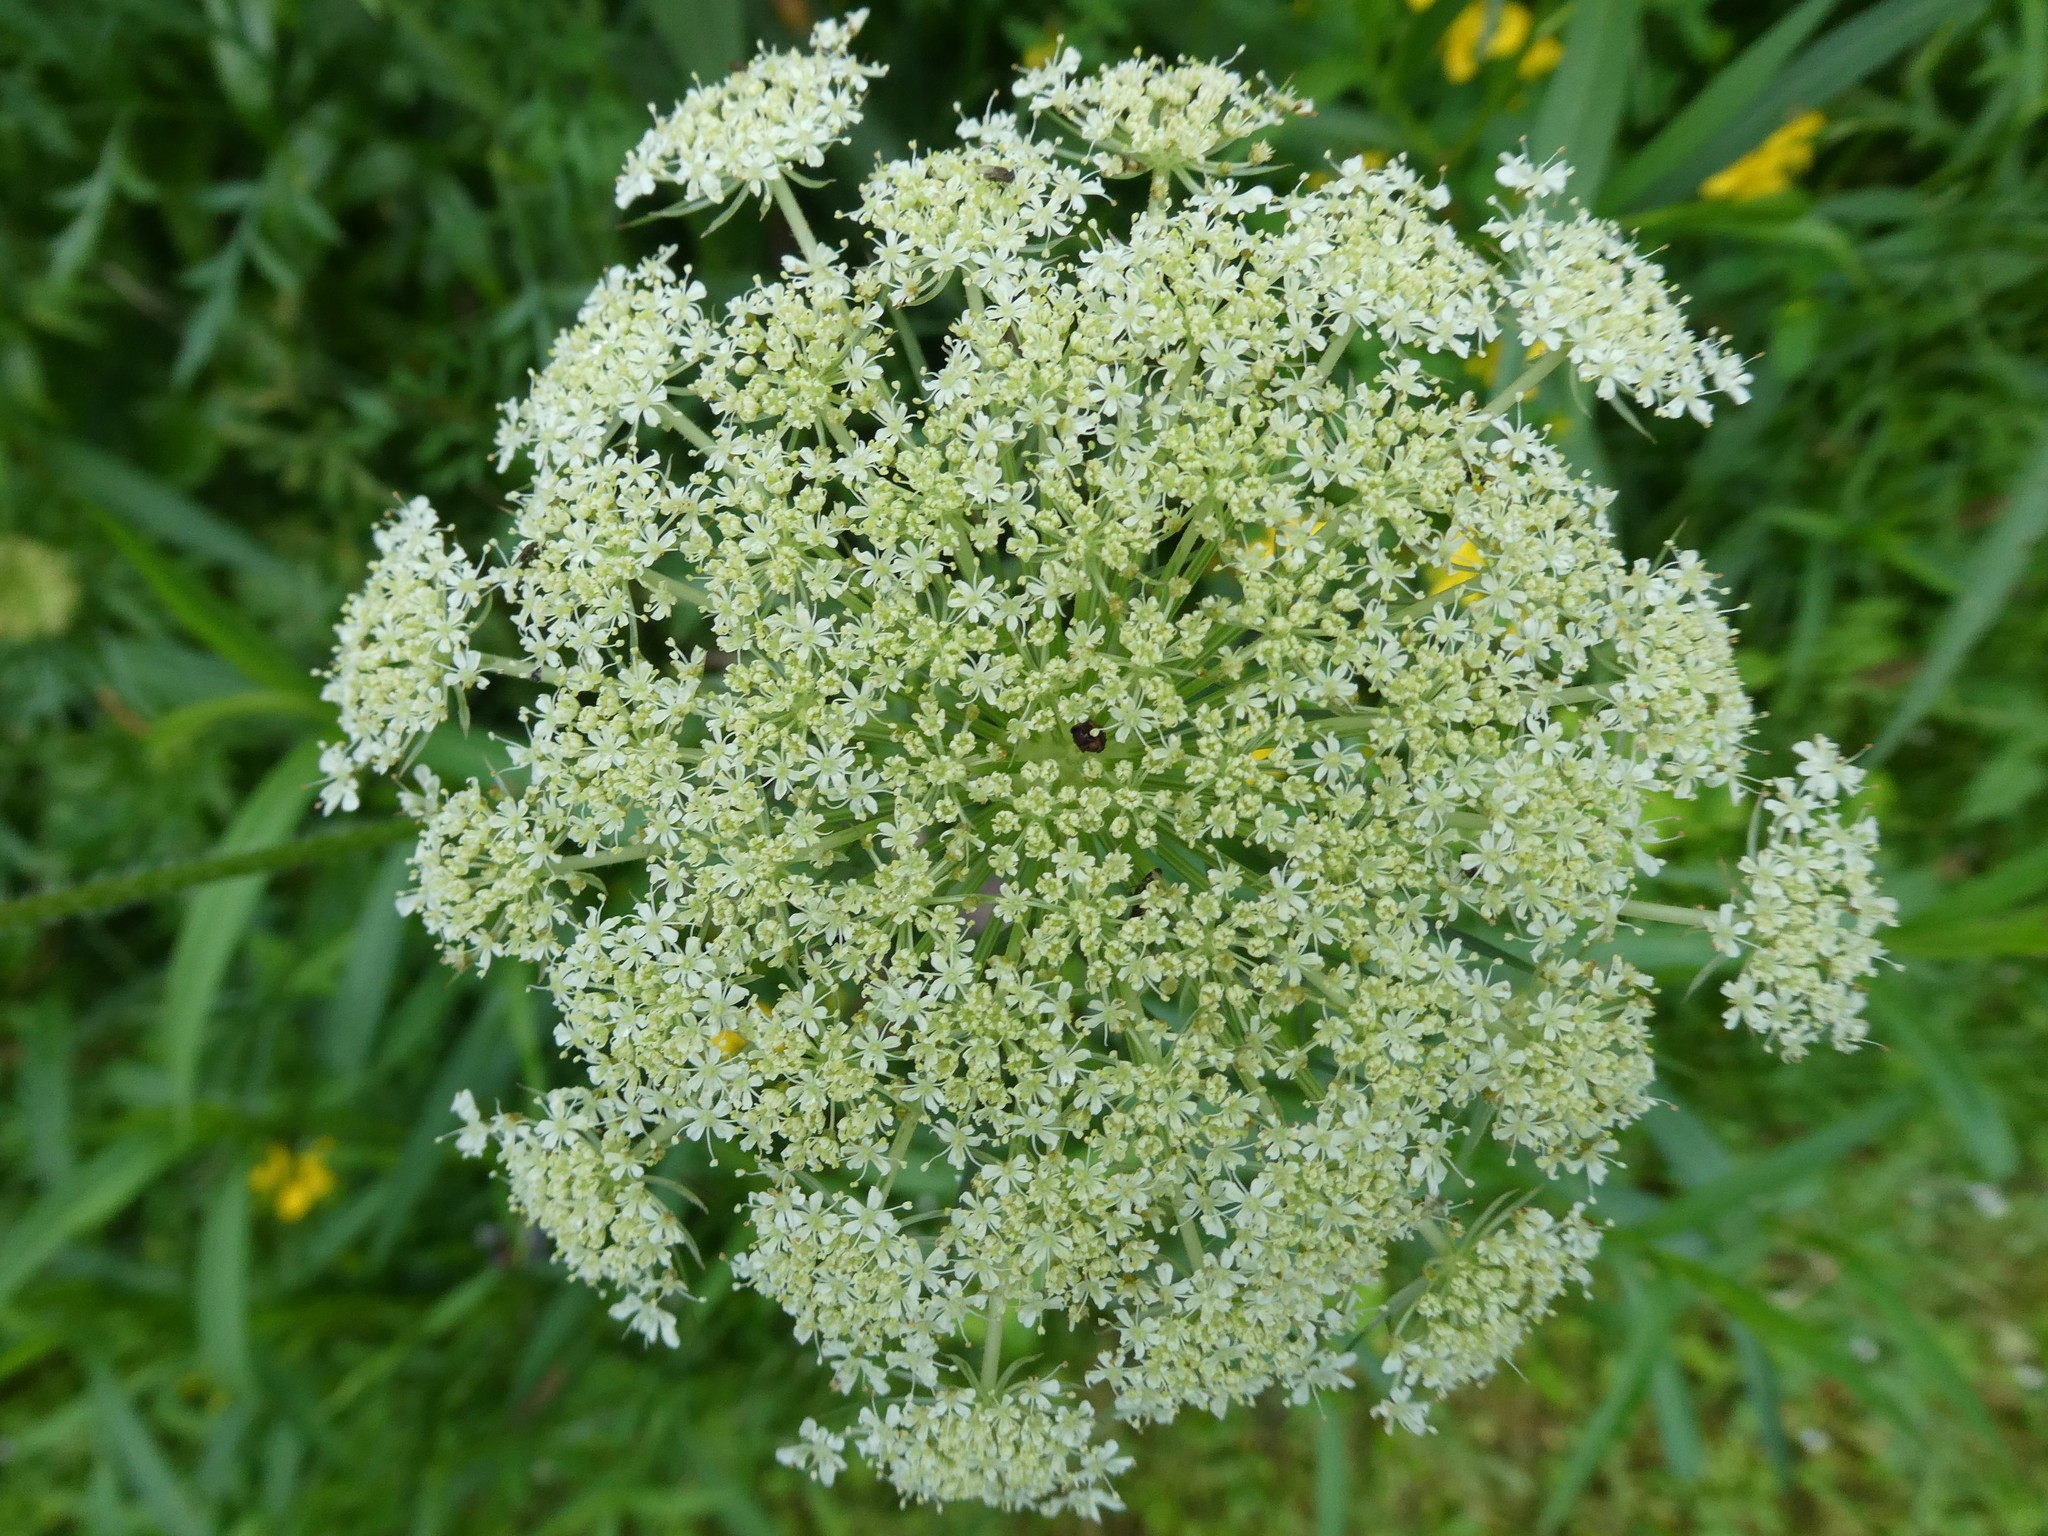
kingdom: Plantae
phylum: Tracheophyta
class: Magnoliopsida
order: Apiales
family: Apiaceae
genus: Daucus
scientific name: Daucus carota
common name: Wild carrot
